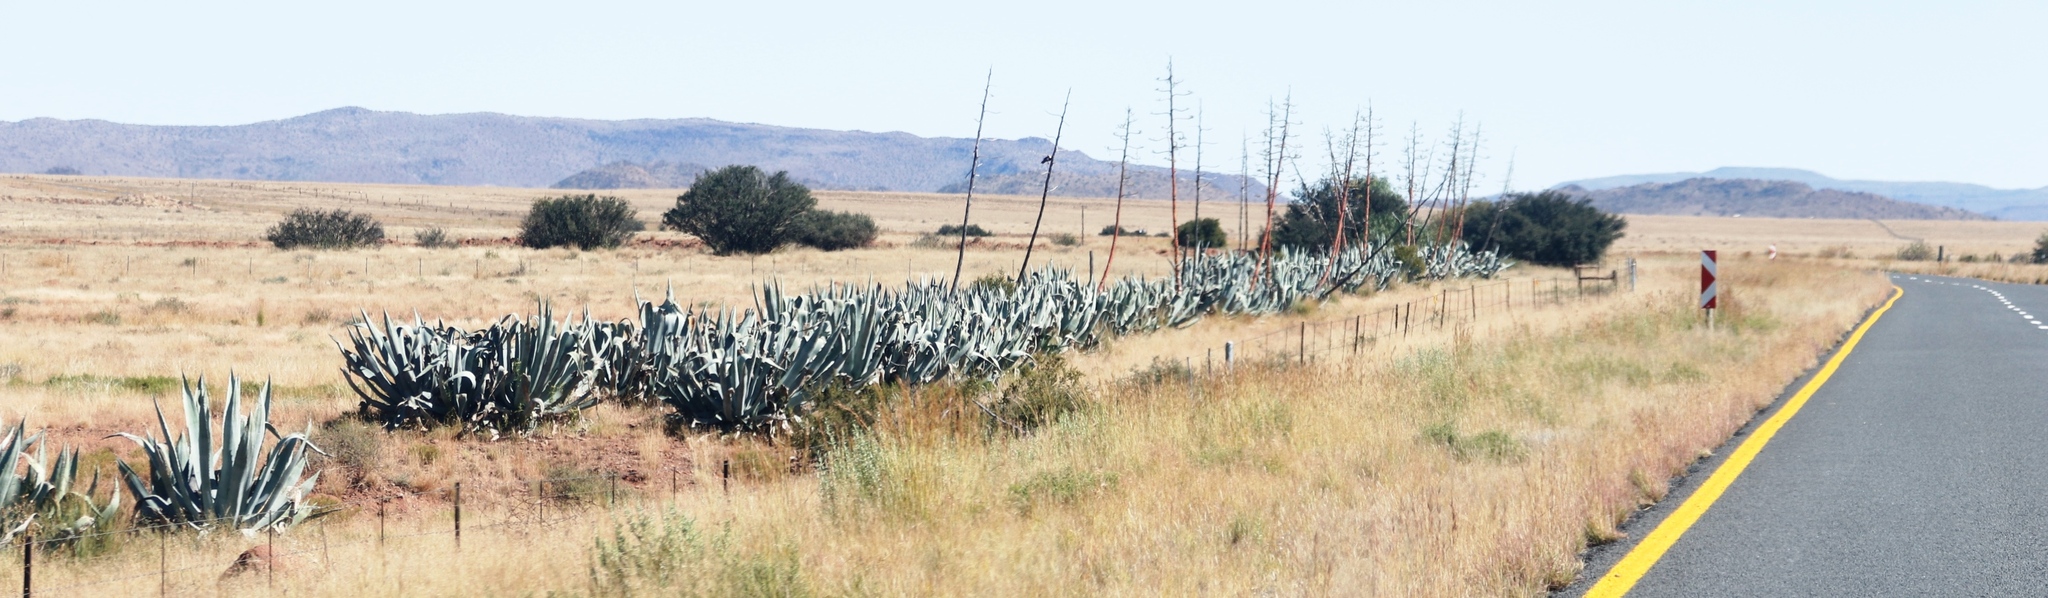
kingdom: Plantae
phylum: Tracheophyta
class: Liliopsida
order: Asparagales
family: Asparagaceae
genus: Agave
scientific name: Agave americana
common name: Centuryplant
